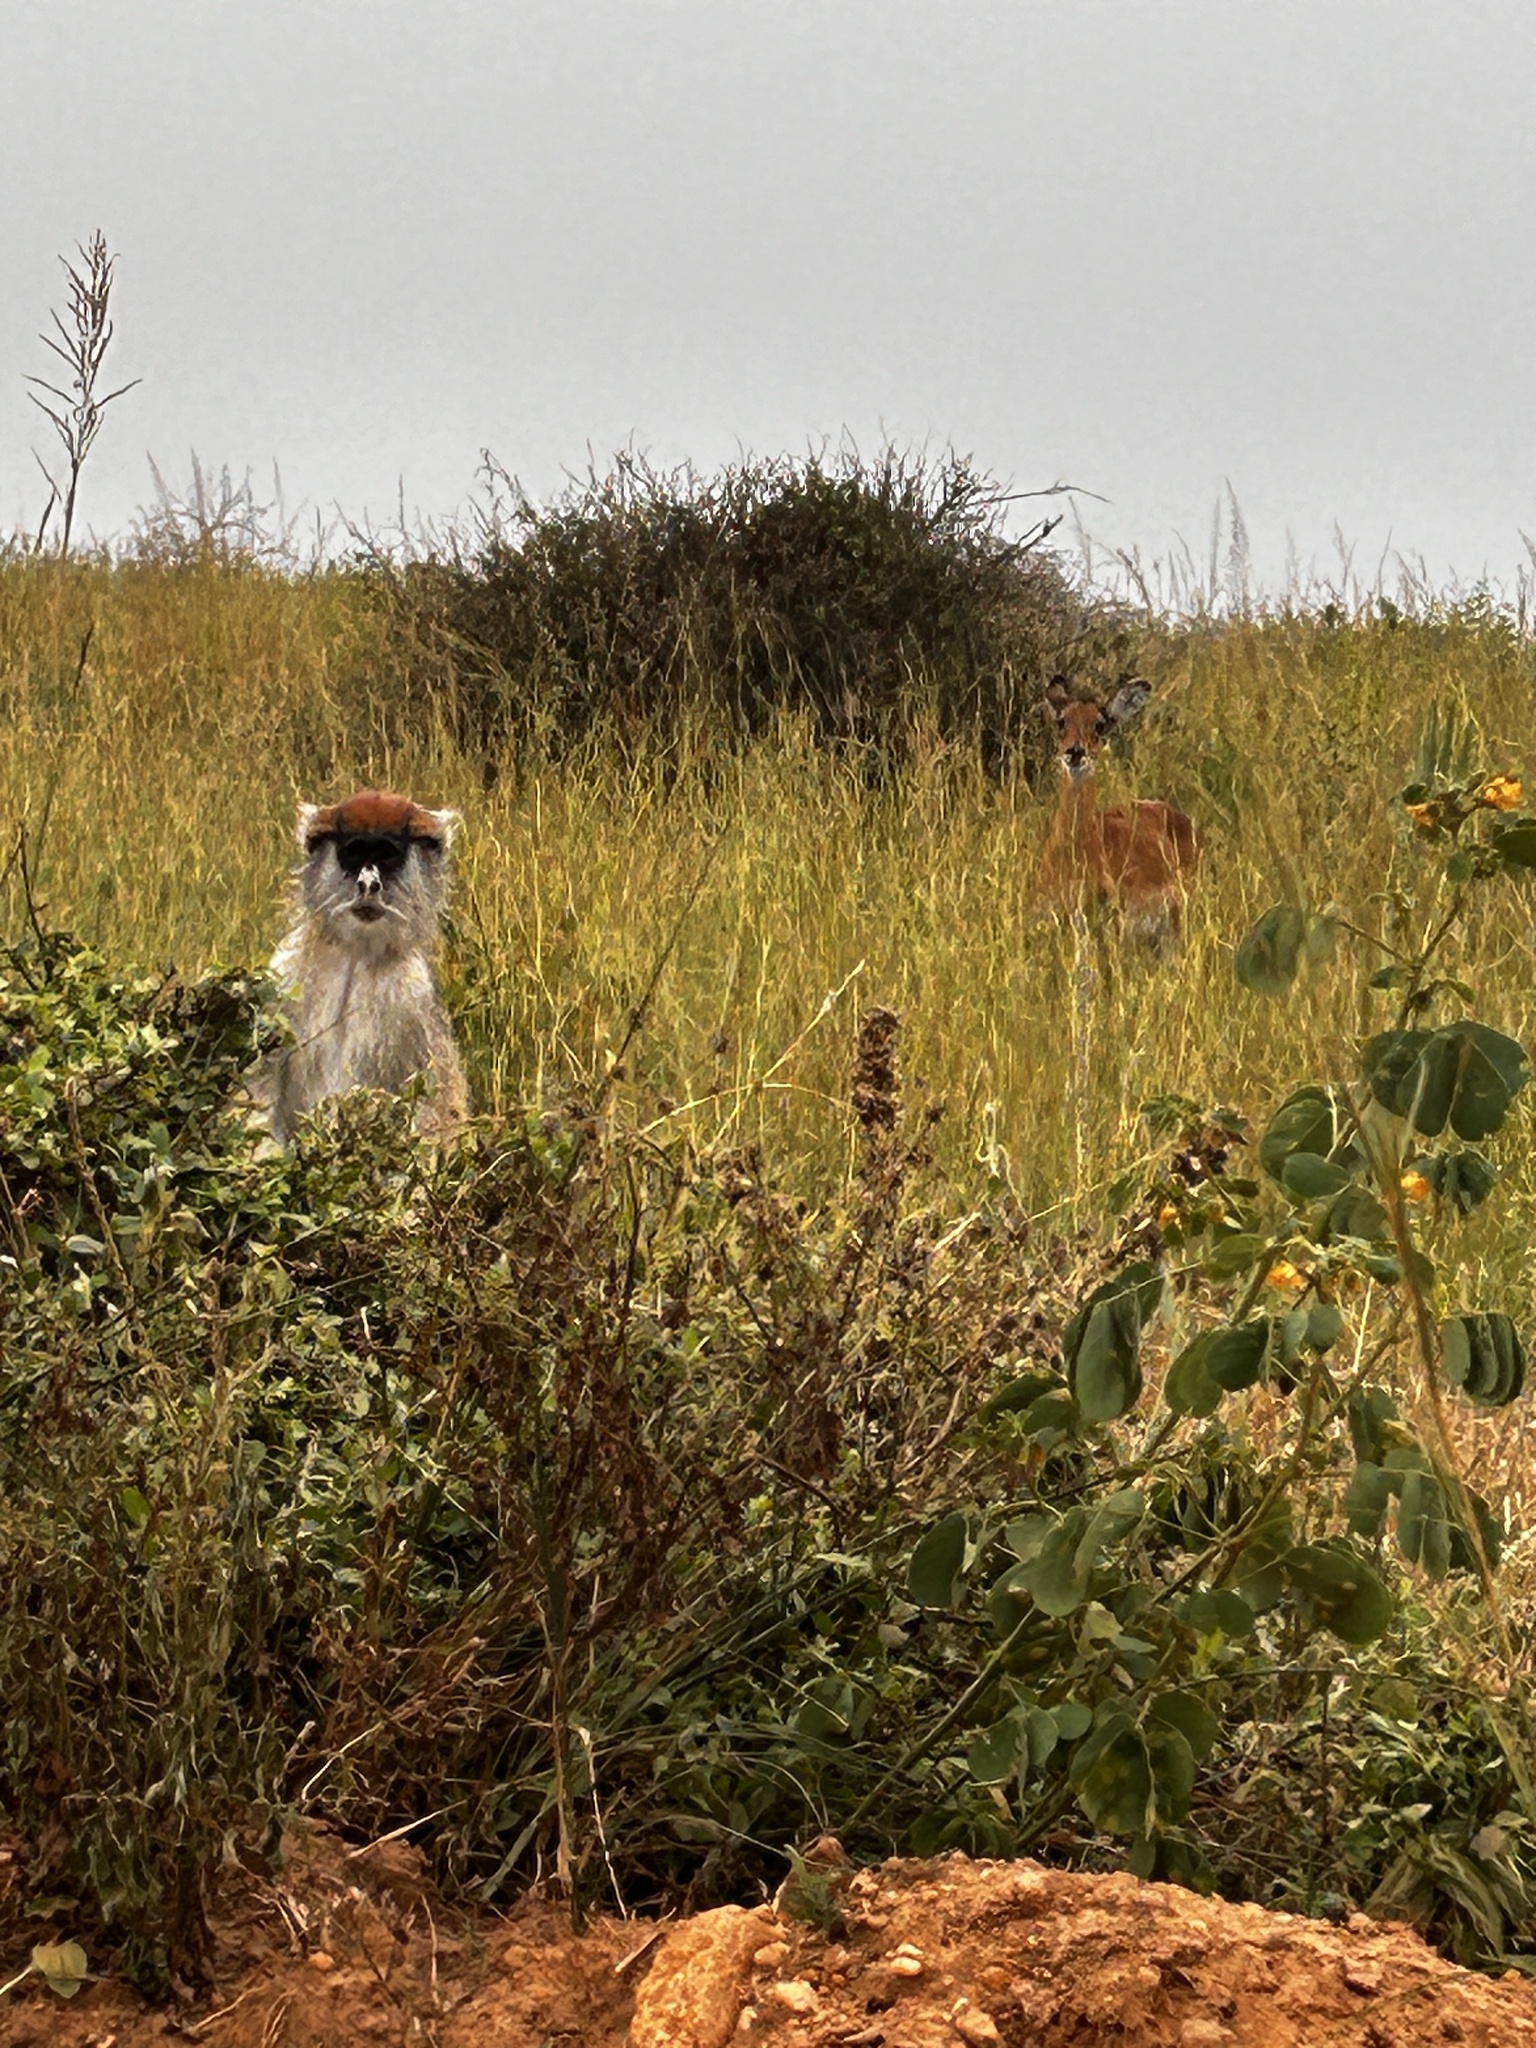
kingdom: Animalia
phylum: Chordata
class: Mammalia
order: Primates
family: Cercopithecidae
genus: Erythrocebus
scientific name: Erythrocebus patas
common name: Patas monkey
